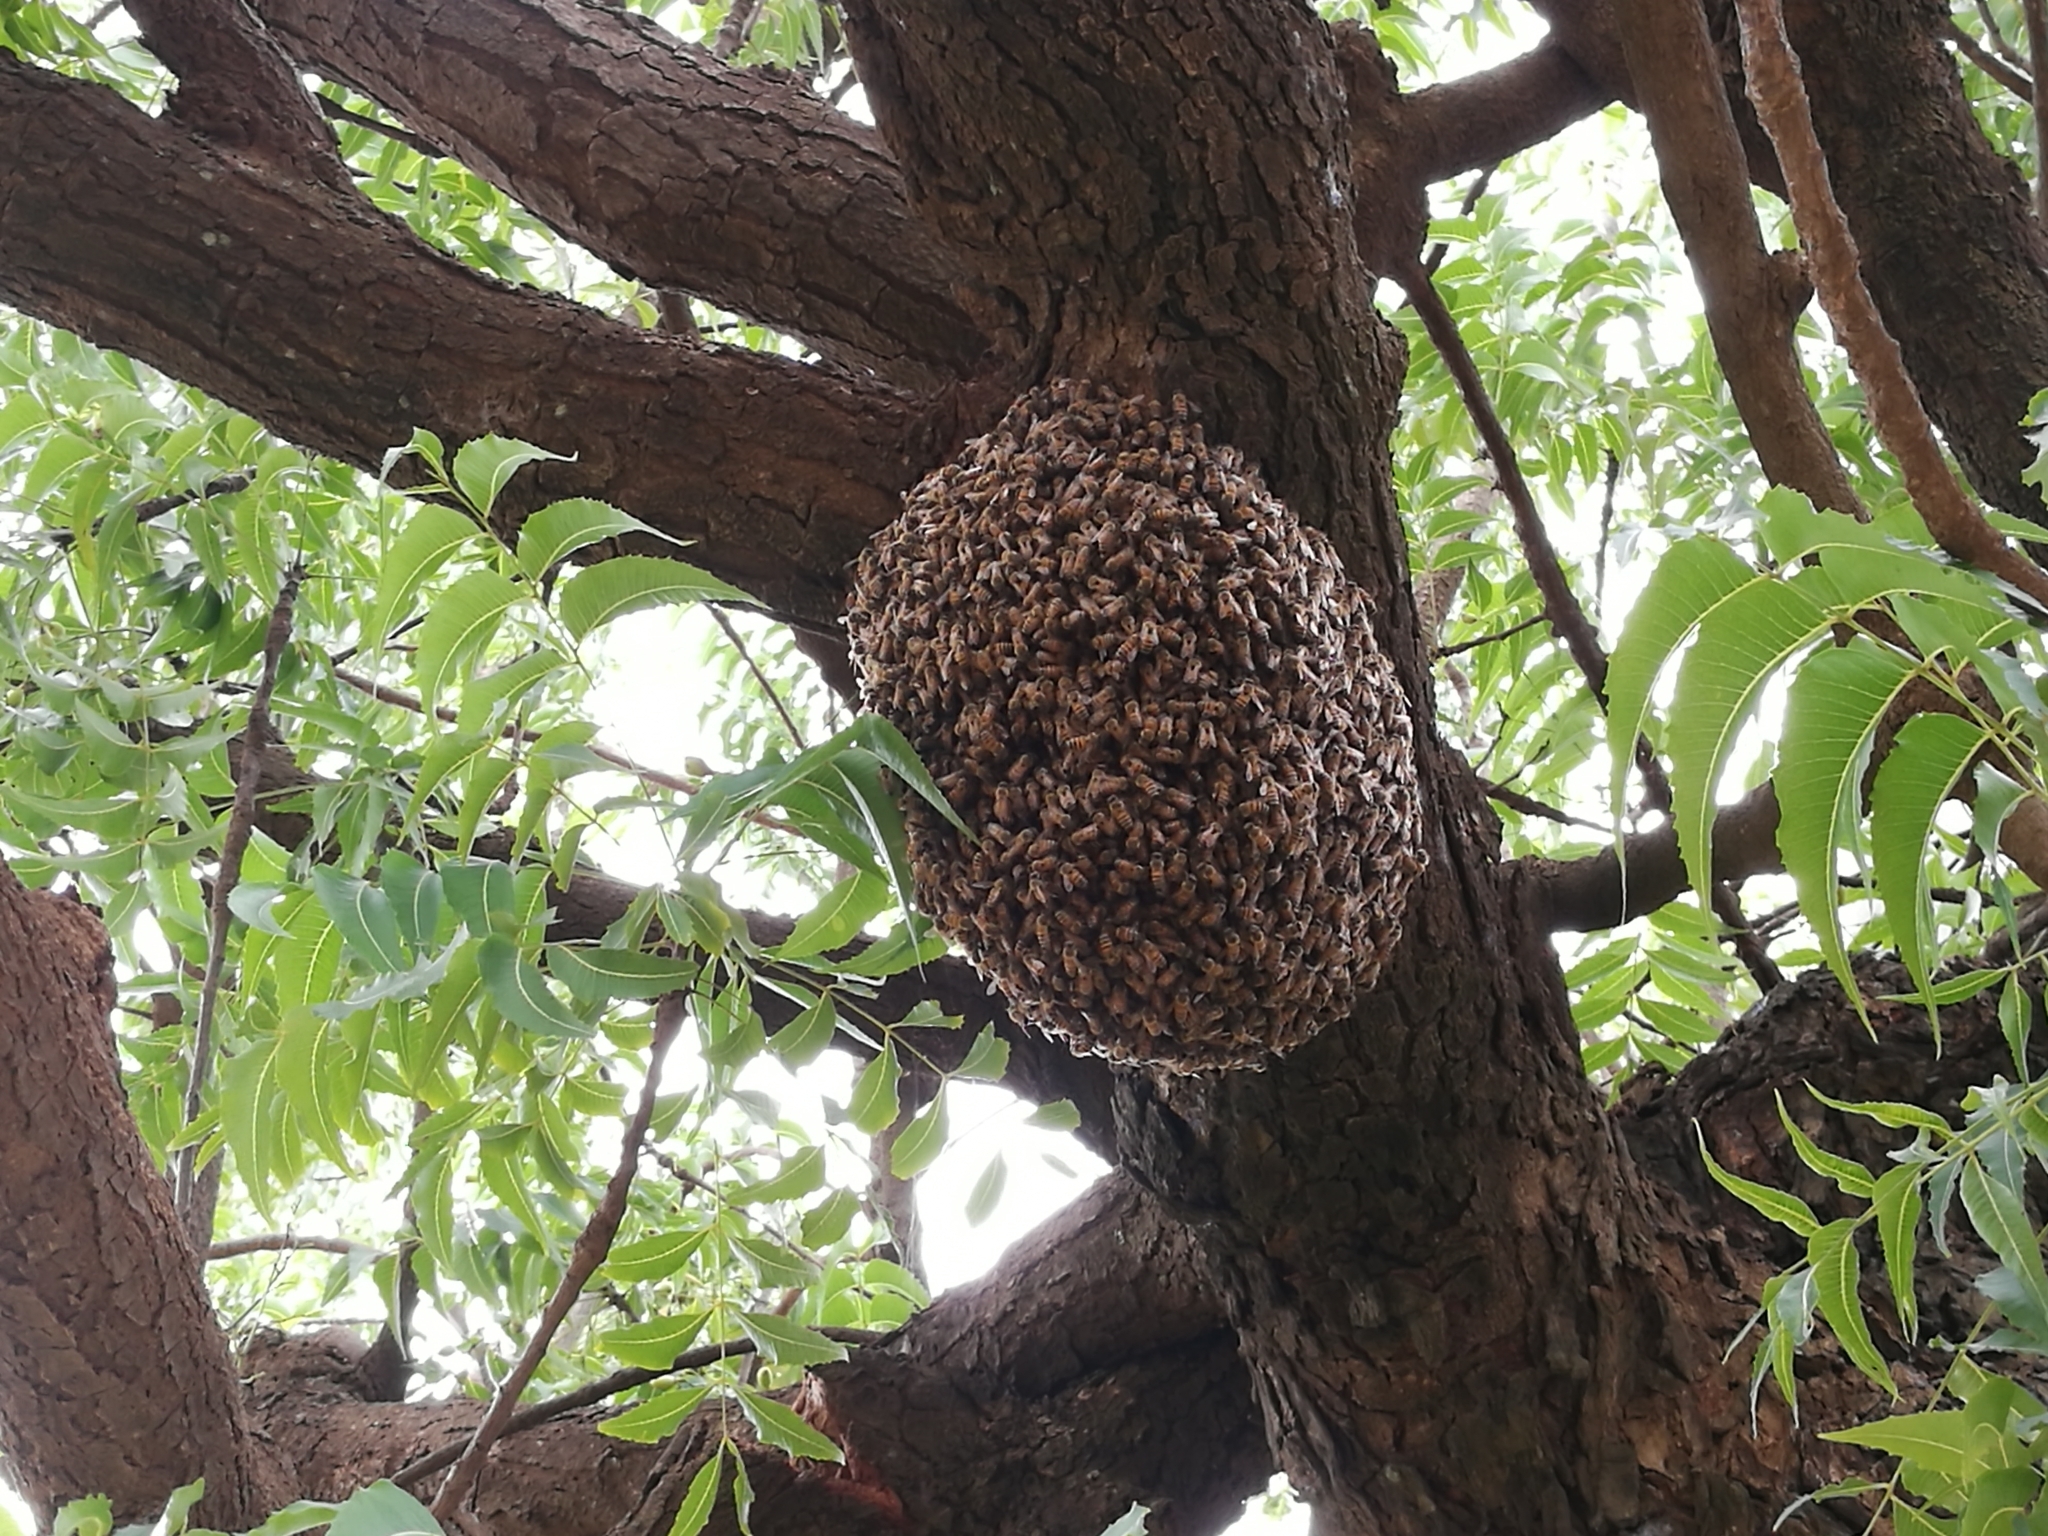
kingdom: Animalia
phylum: Arthropoda
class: Insecta
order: Hymenoptera
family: Apidae
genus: Apis
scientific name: Apis mellifera
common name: Honey bee
